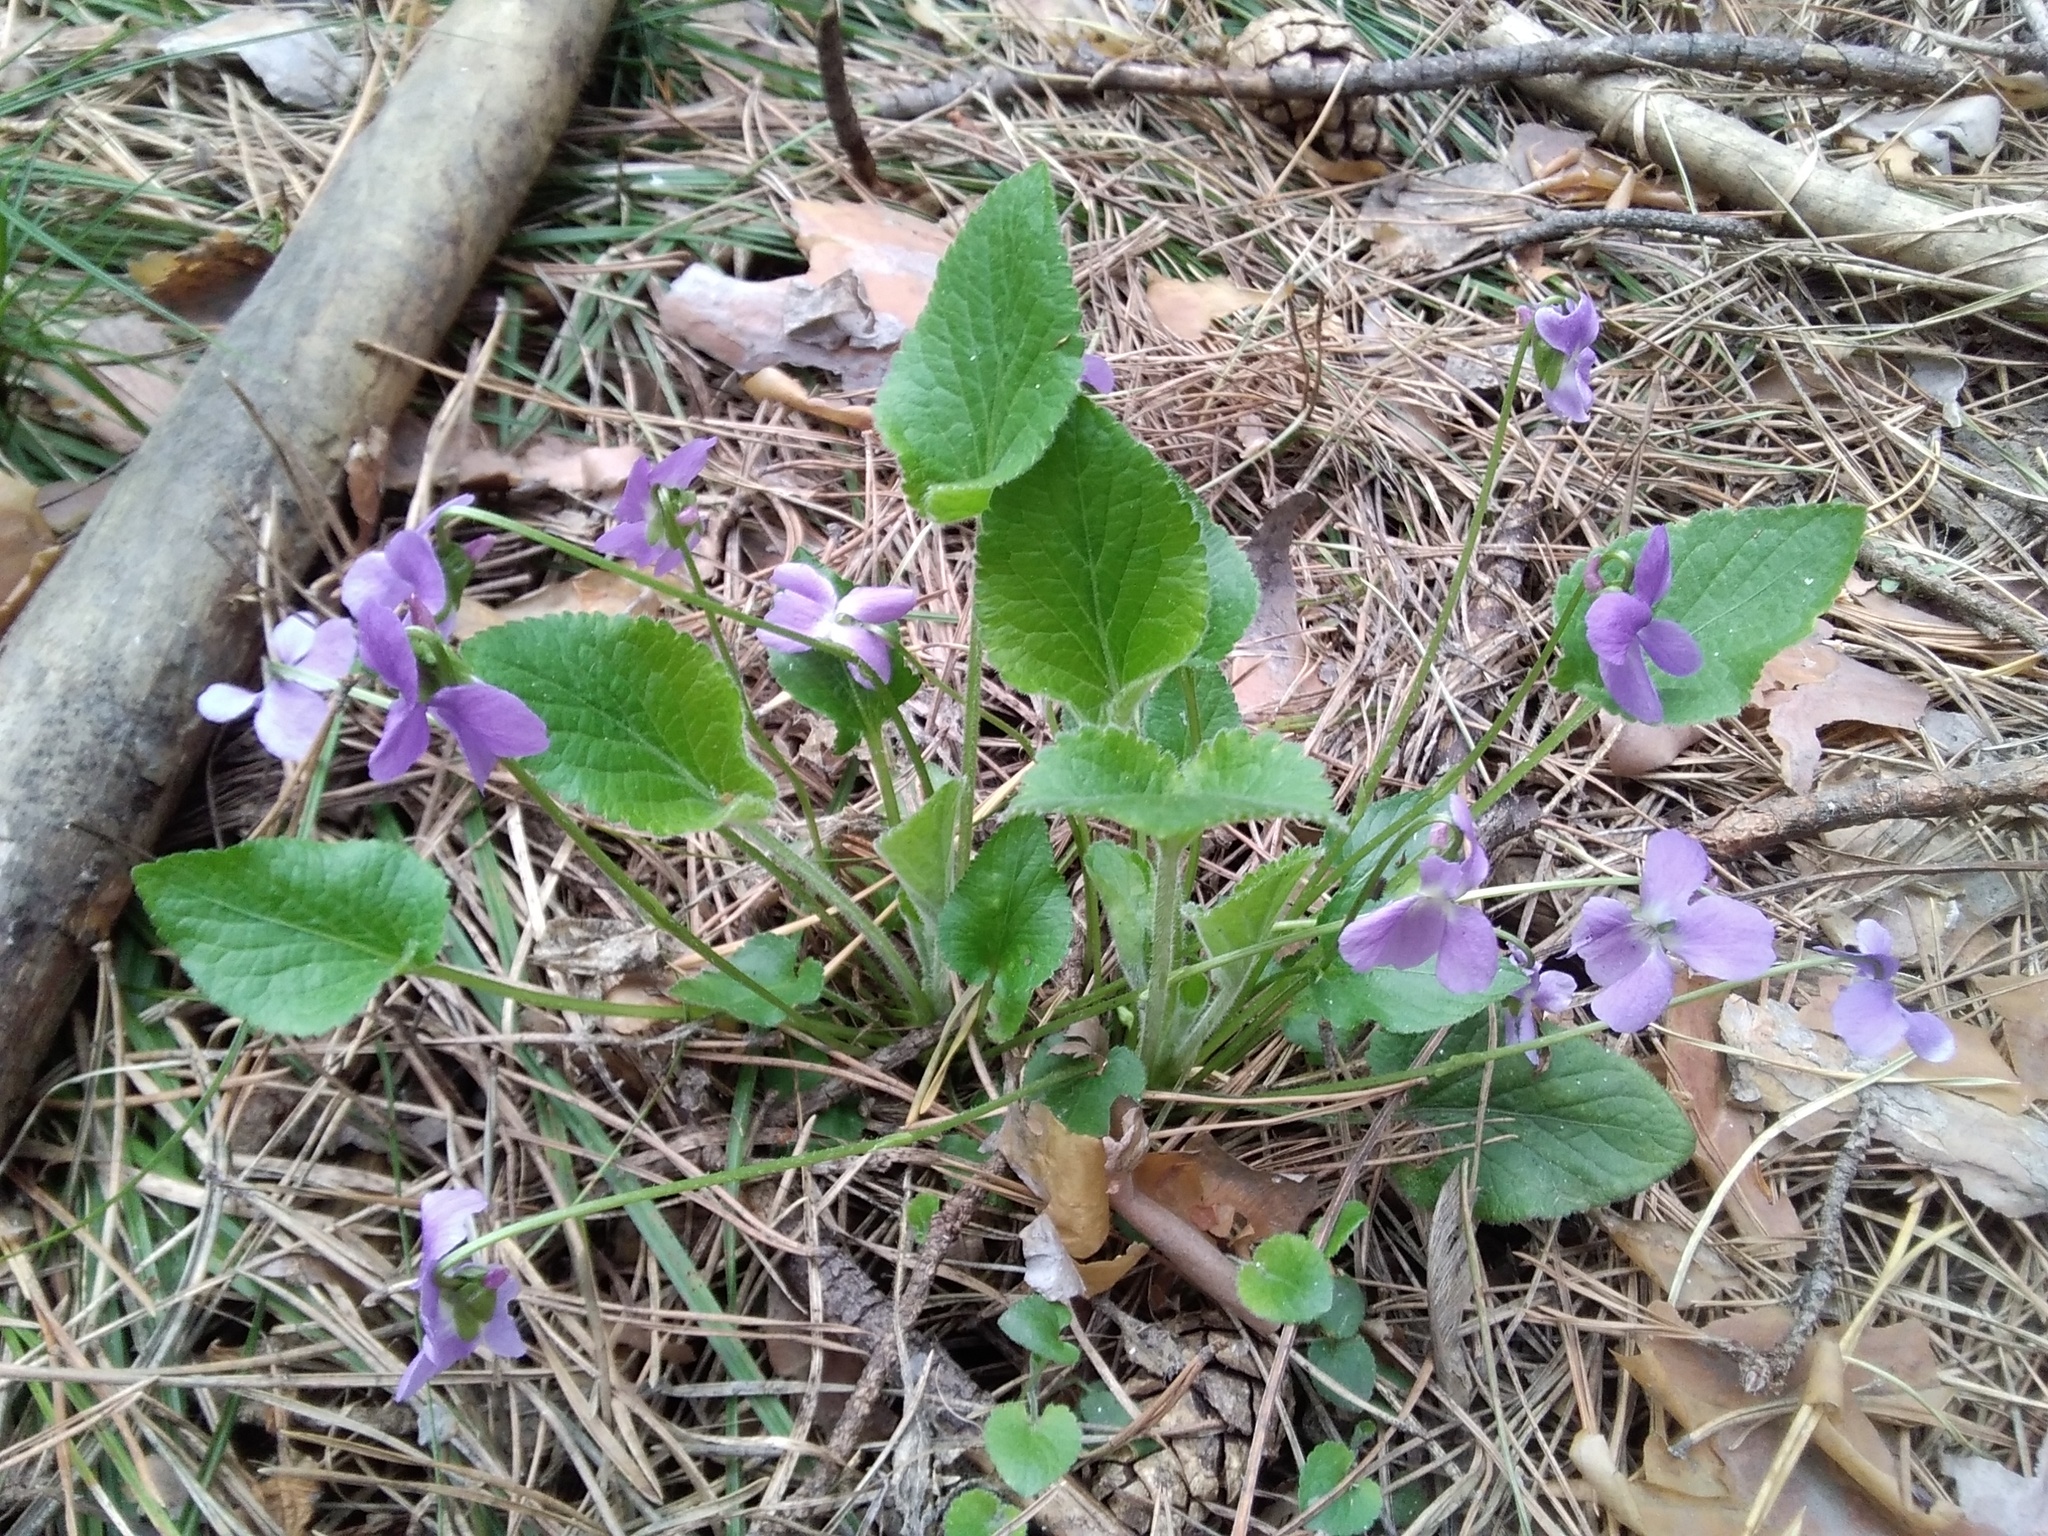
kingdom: Plantae
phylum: Tracheophyta
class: Magnoliopsida
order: Malpighiales
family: Violaceae
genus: Viola
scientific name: Viola hirta
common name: Hairy violet
